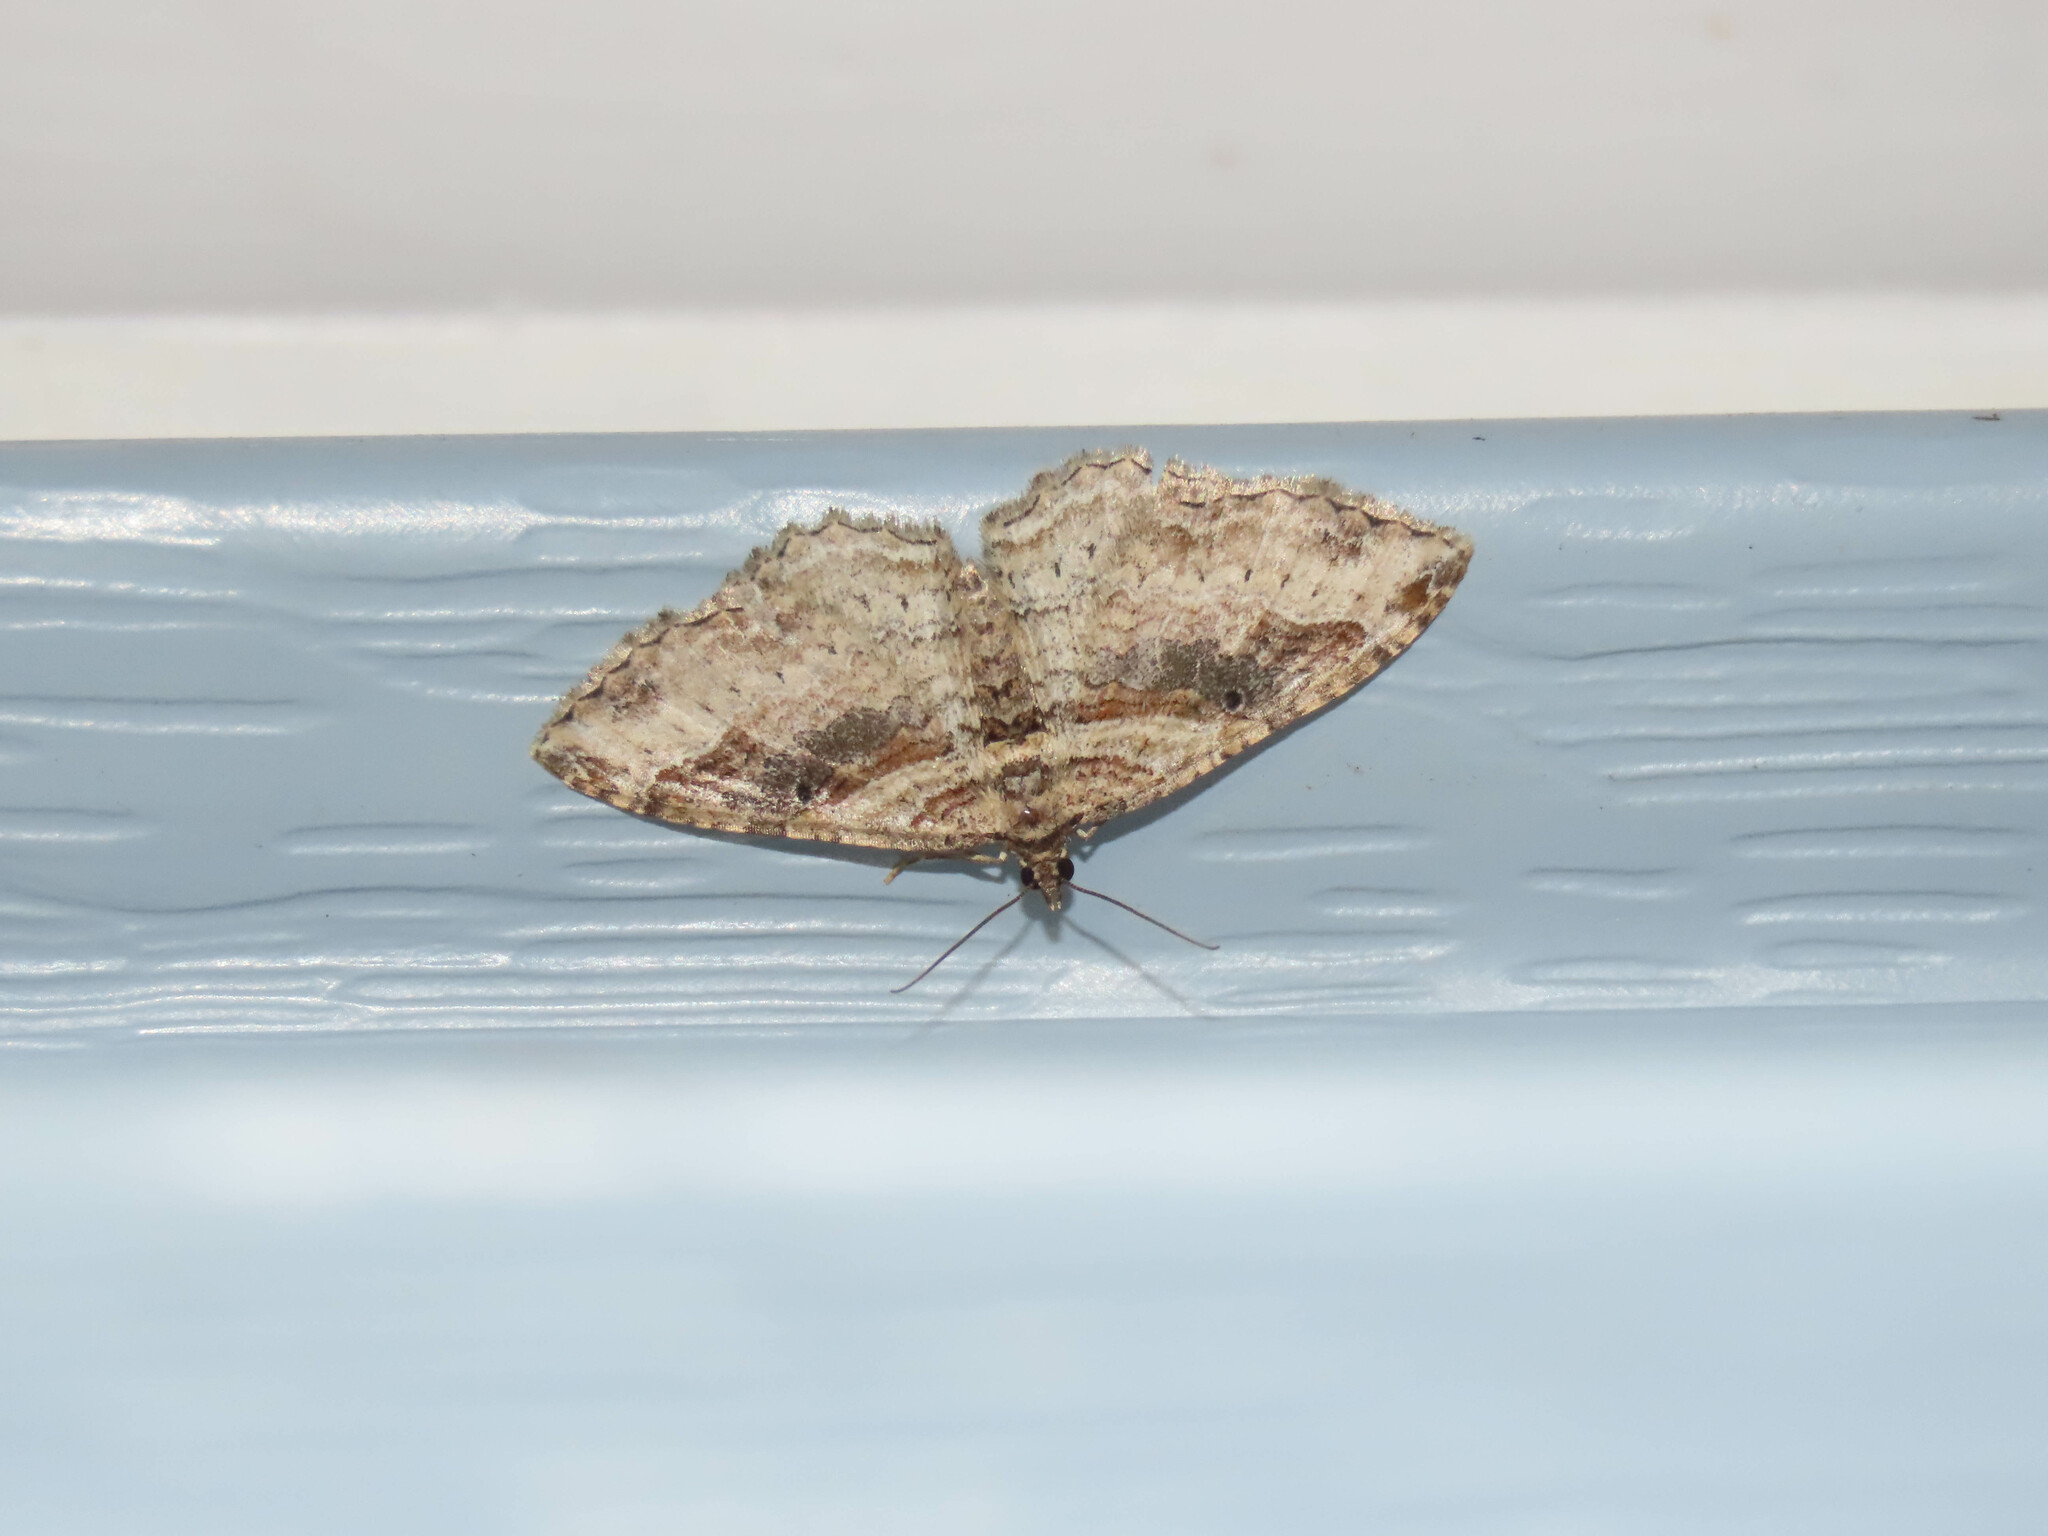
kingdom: Animalia
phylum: Arthropoda
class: Insecta
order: Lepidoptera
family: Geometridae
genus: Costaconvexa
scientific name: Costaconvexa centrostrigaria
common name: Bent-line carpet
